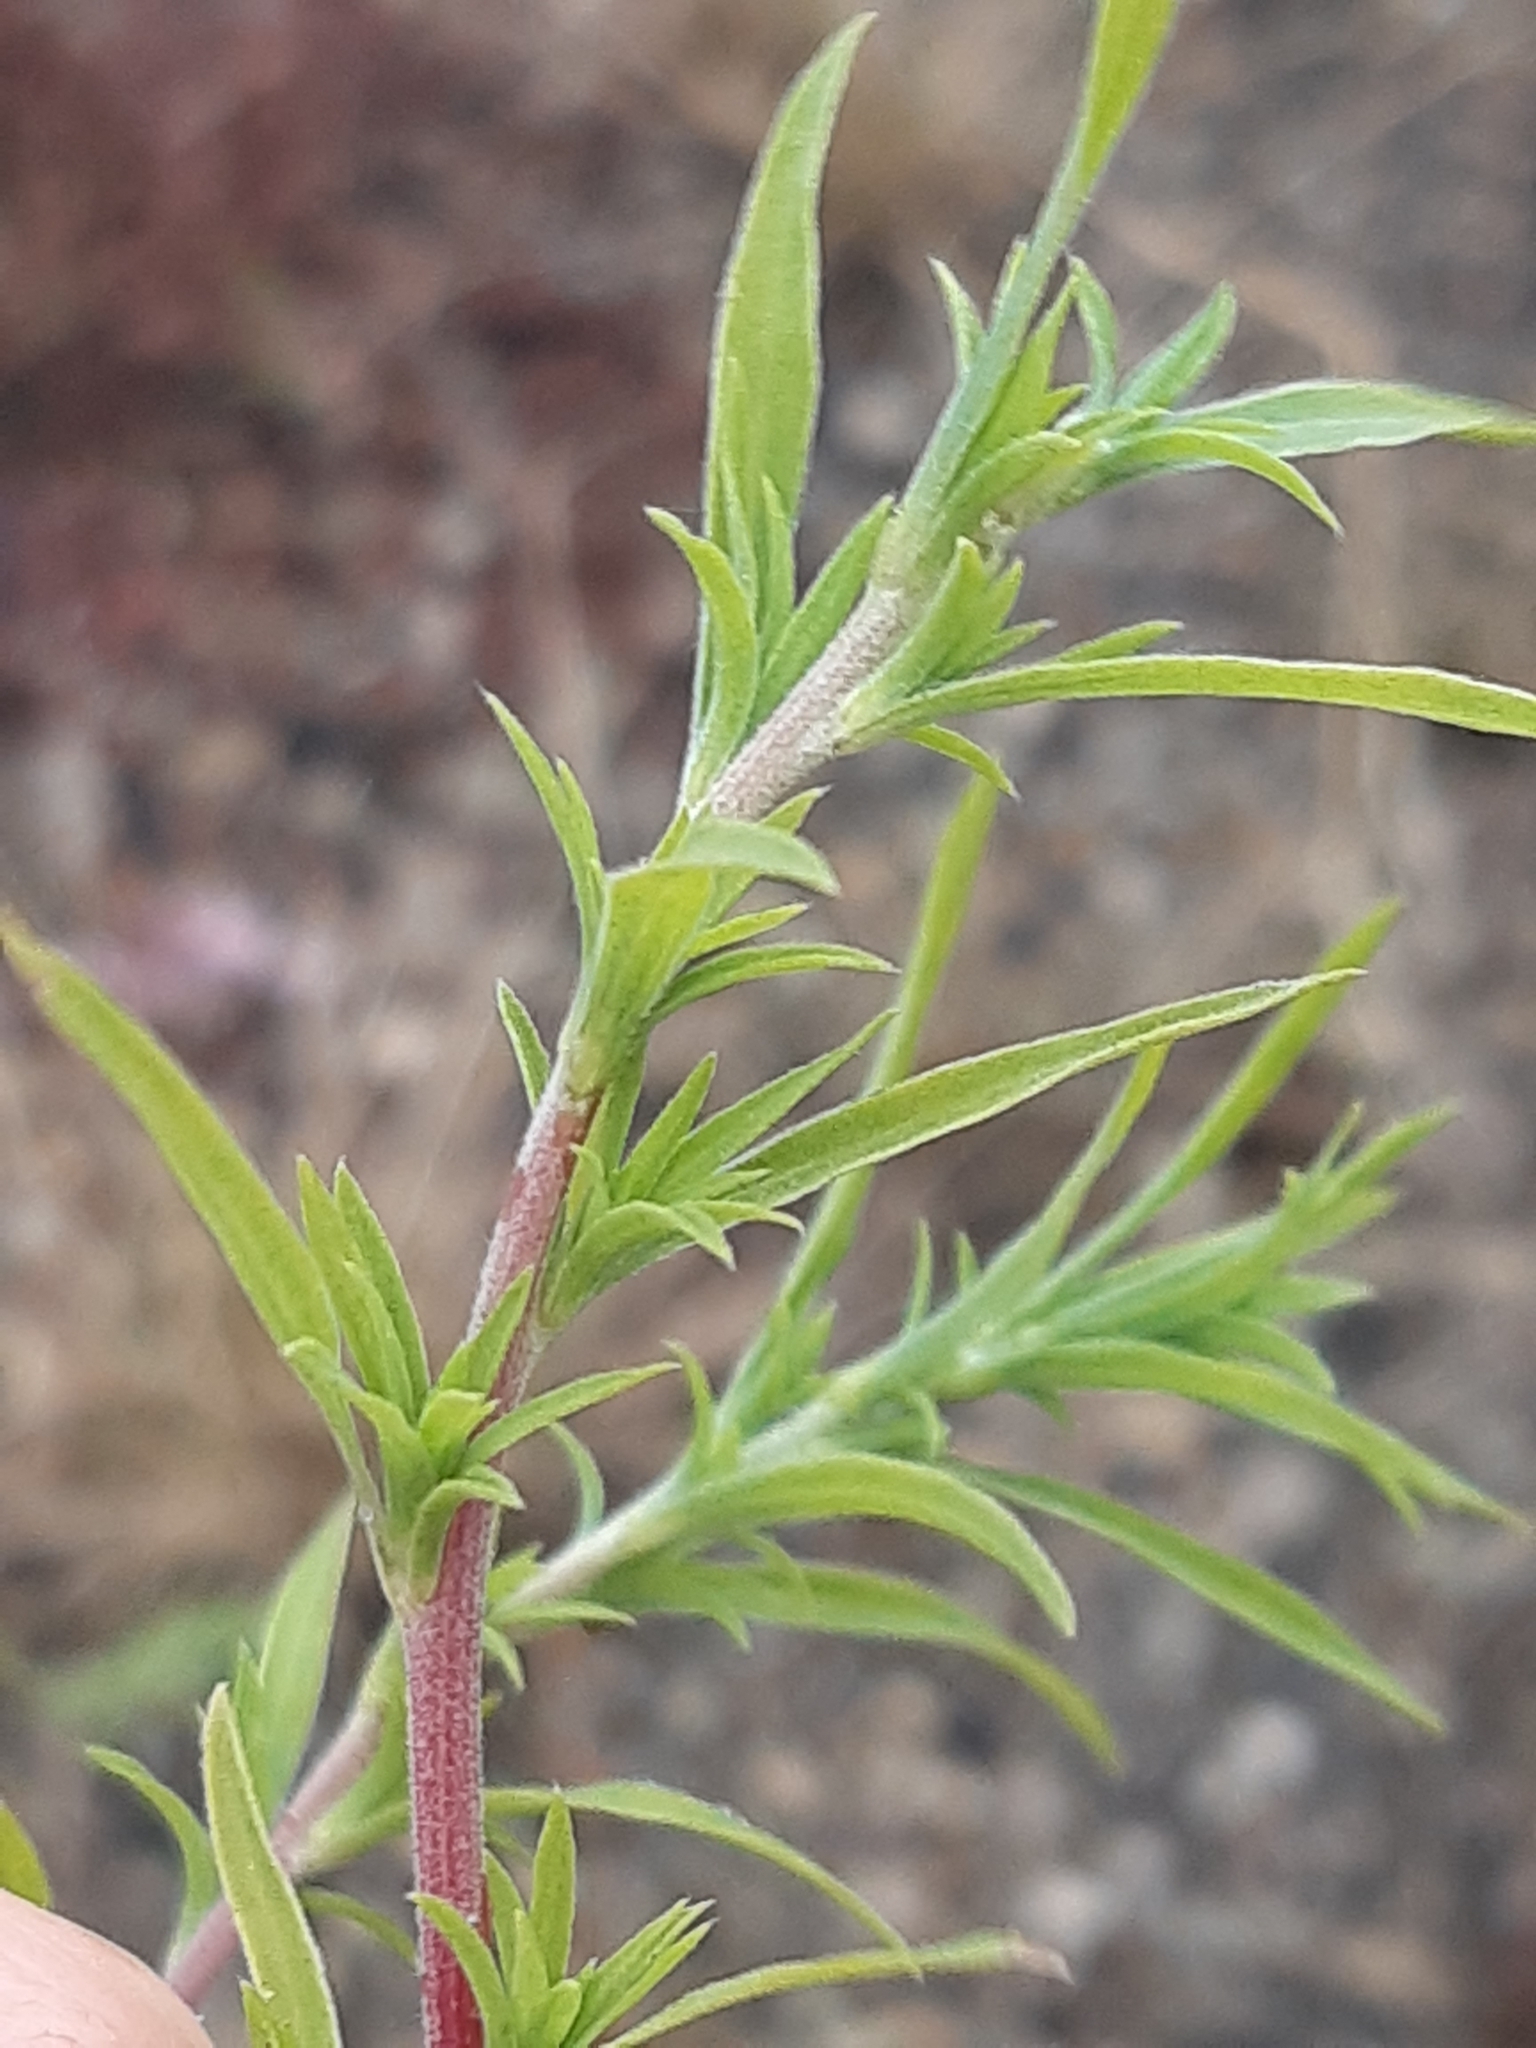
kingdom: Plantae
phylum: Tracheophyta
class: Magnoliopsida
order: Caryophyllales
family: Amaranthaceae
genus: Bassia
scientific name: Bassia scoparia
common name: Belvedere
